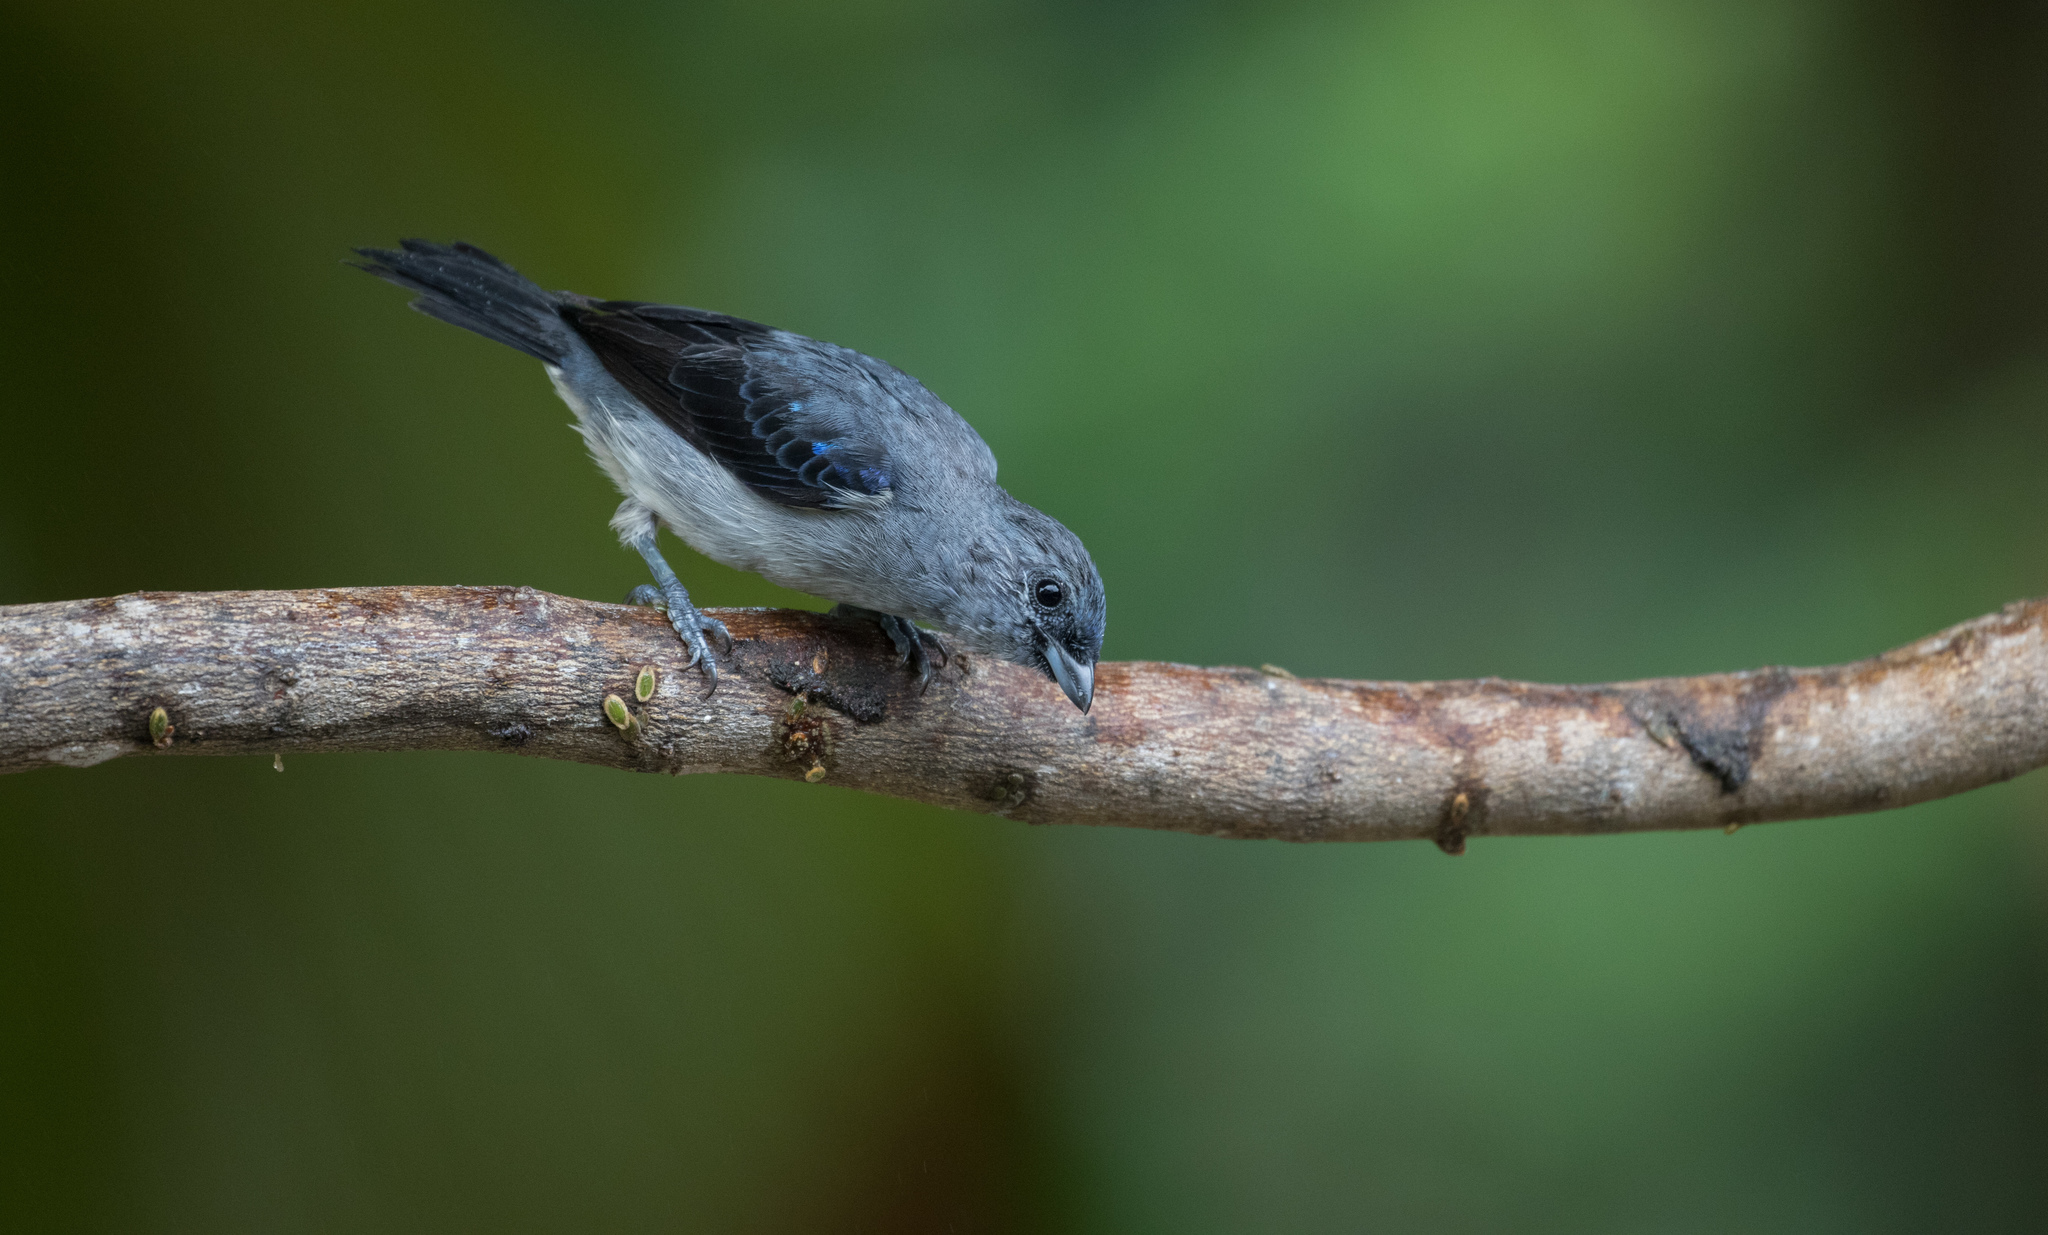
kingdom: Animalia
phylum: Chordata
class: Aves
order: Passeriformes
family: Thraupidae
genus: Tangara
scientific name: Tangara inornata
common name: Plain-colored tanager
